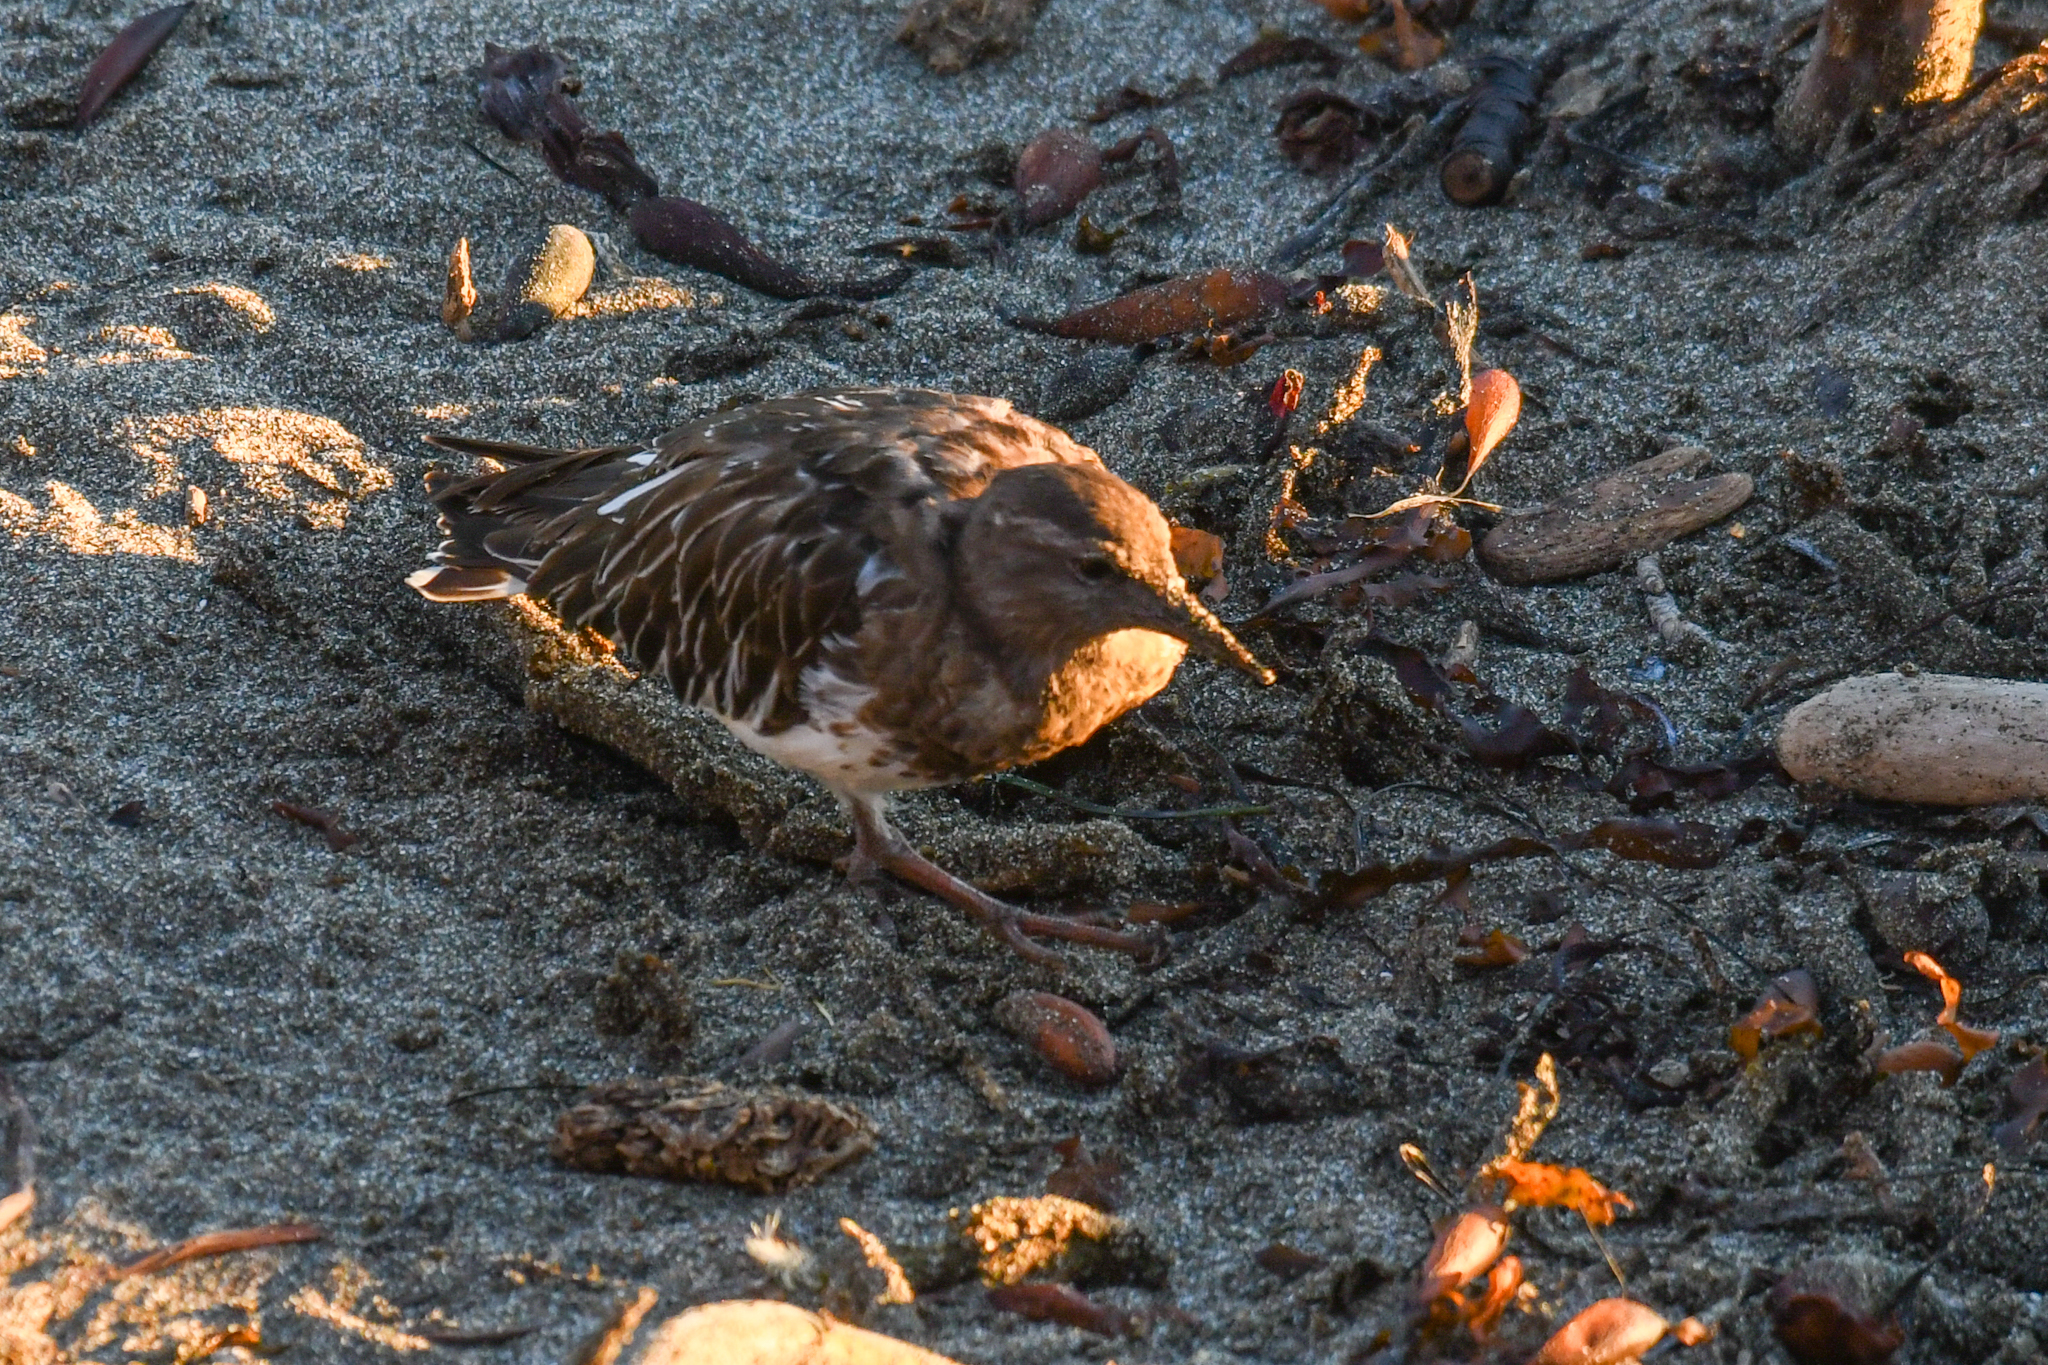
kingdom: Animalia
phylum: Chordata
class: Aves
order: Charadriiformes
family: Scolopacidae
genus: Arenaria
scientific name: Arenaria melanocephala
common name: Black turnstone
